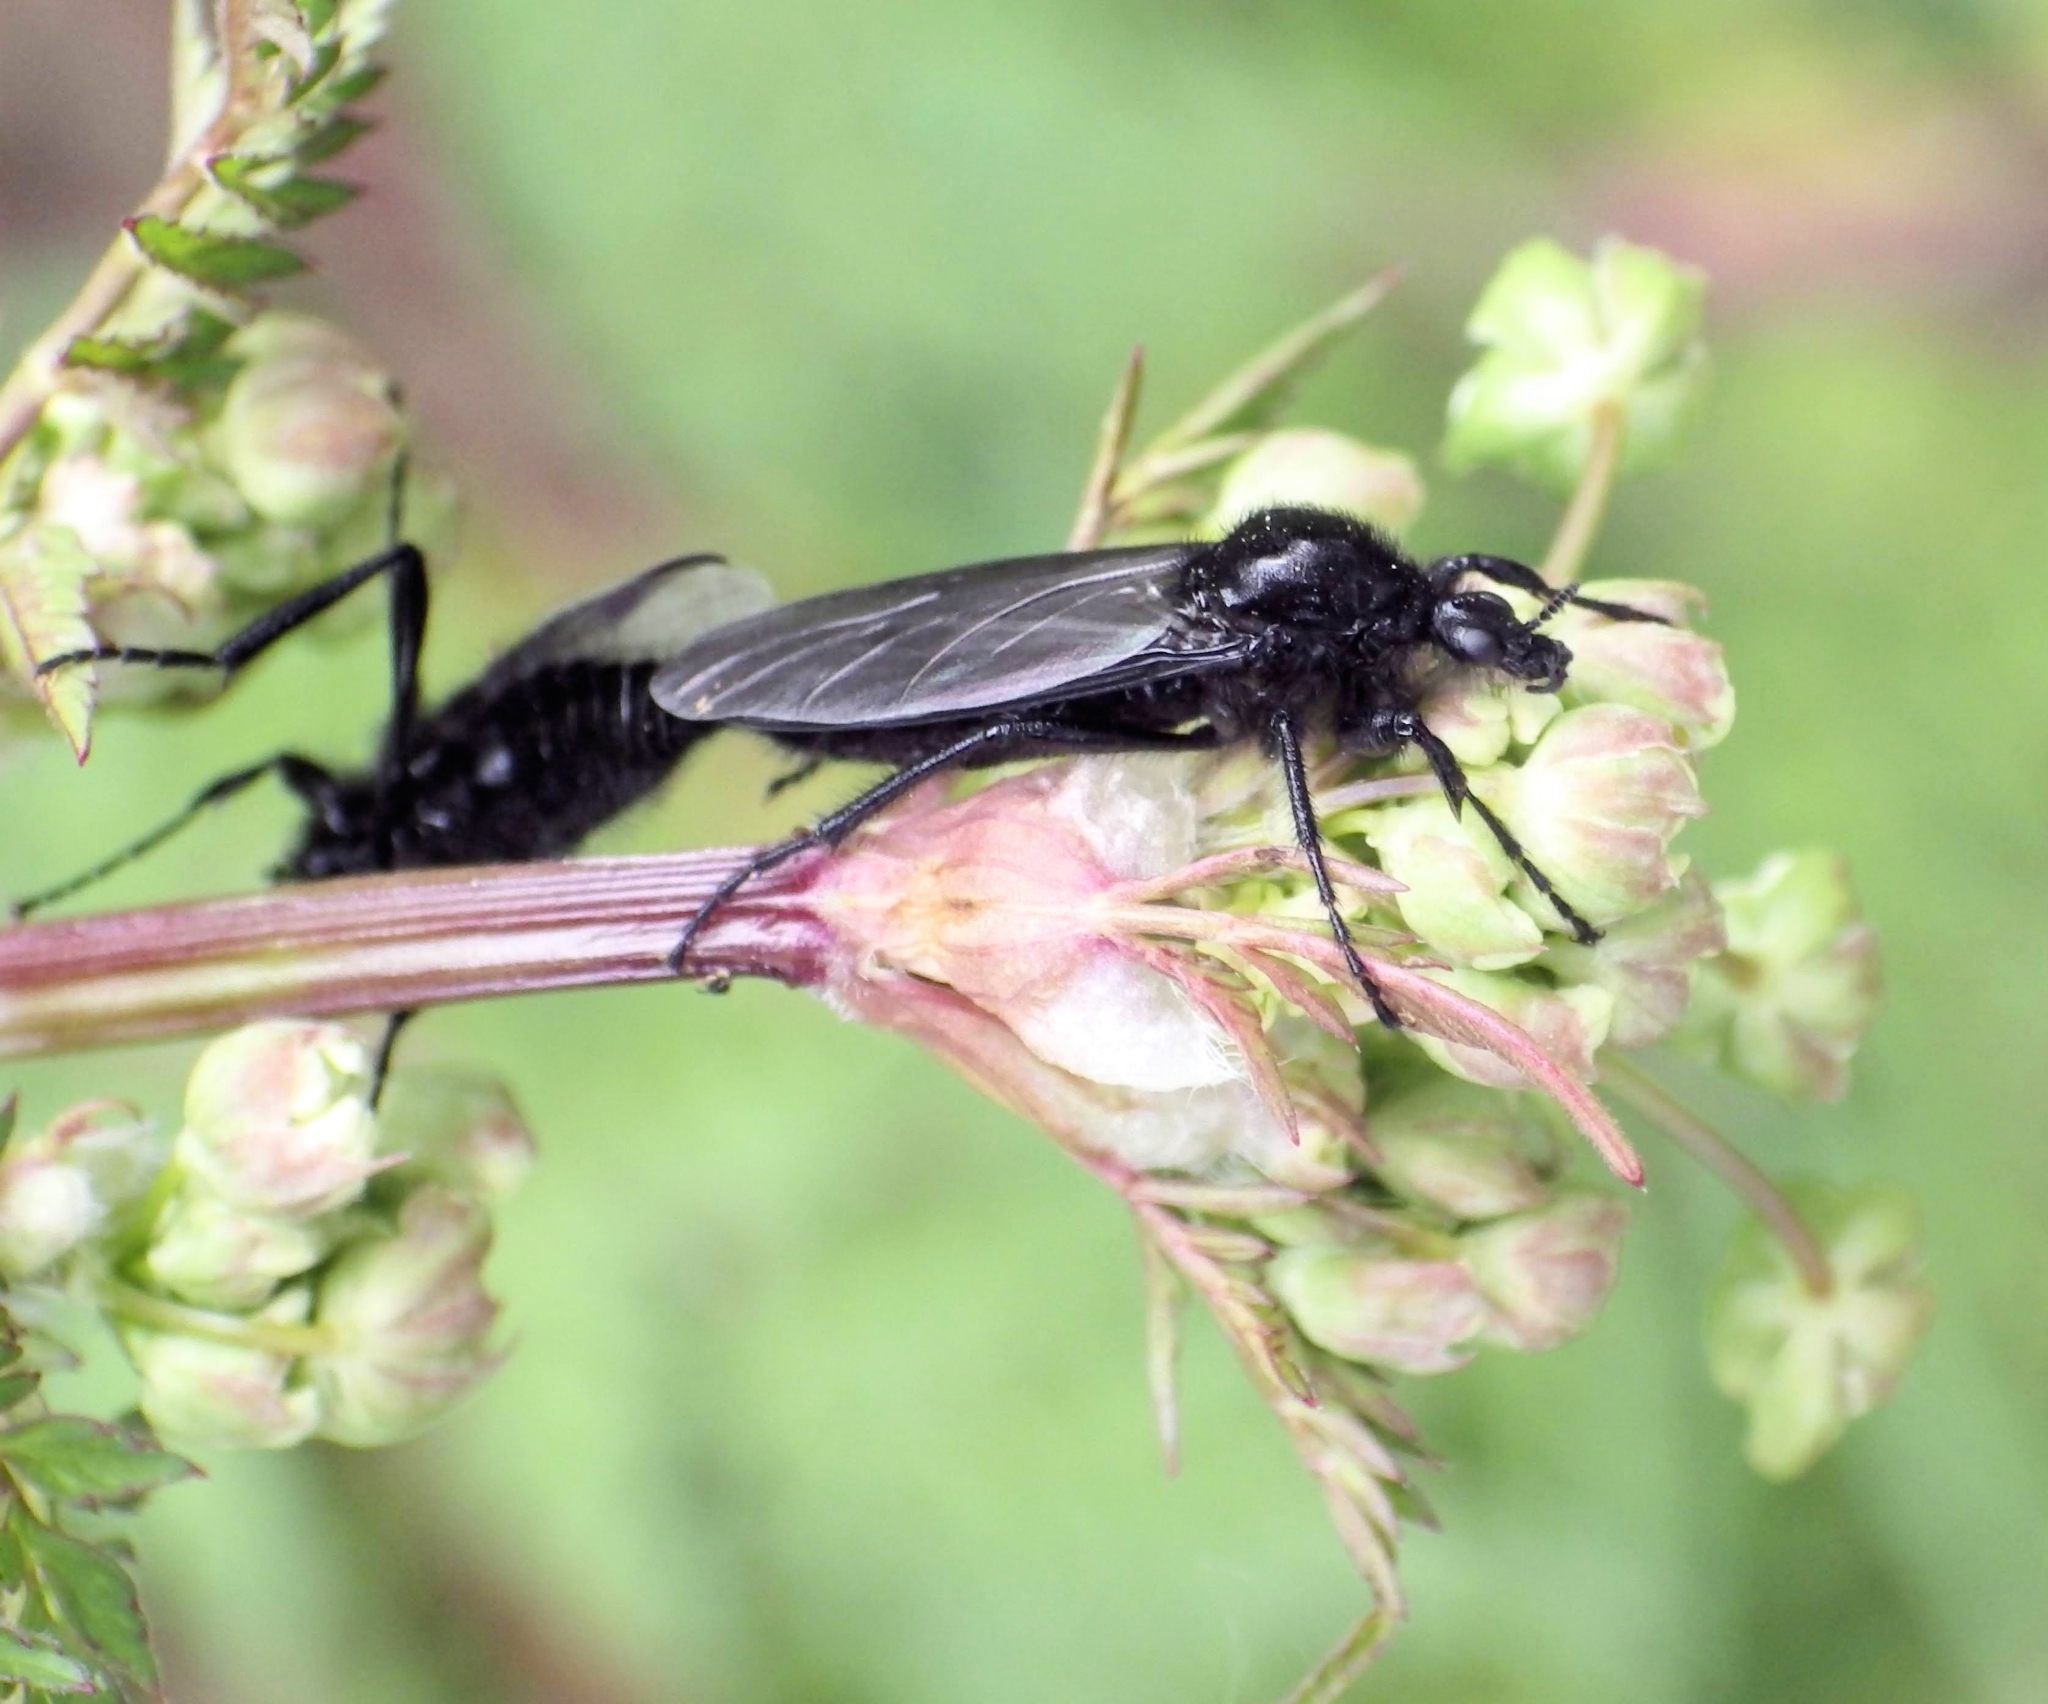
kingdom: Animalia
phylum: Arthropoda
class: Insecta
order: Diptera
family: Bibionidae
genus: Bibio
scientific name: Bibio marci
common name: St marks fly
